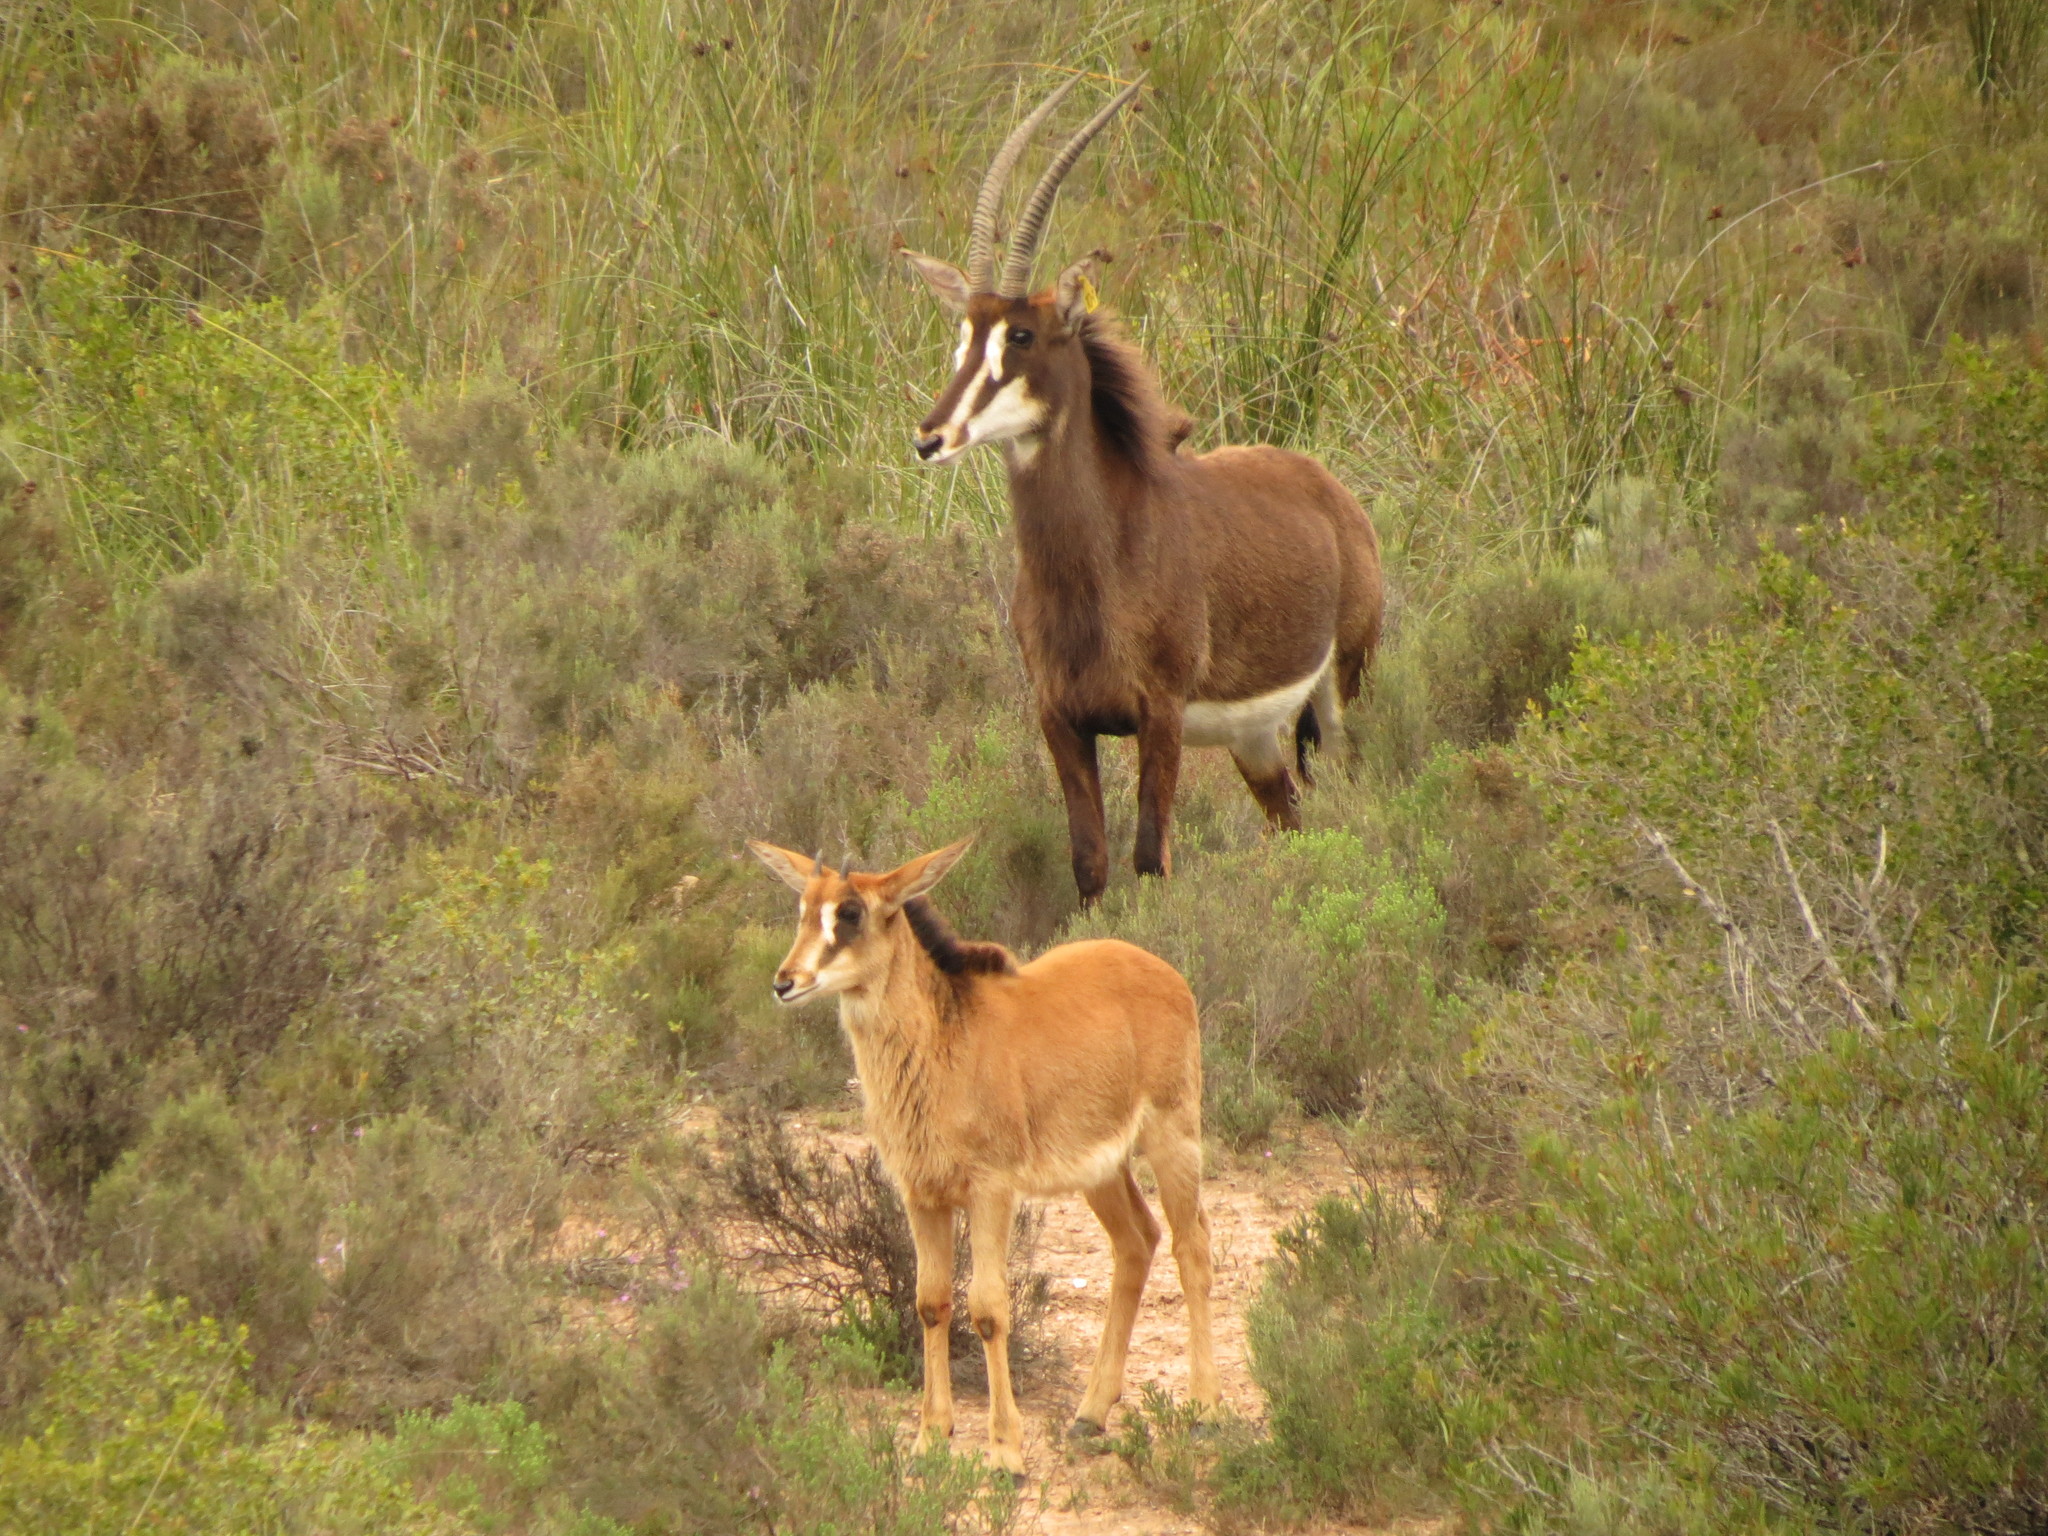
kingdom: Animalia
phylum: Chordata
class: Mammalia
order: Artiodactyla
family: Bovidae
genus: Hippotragus
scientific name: Hippotragus niger
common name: Sable antelope
